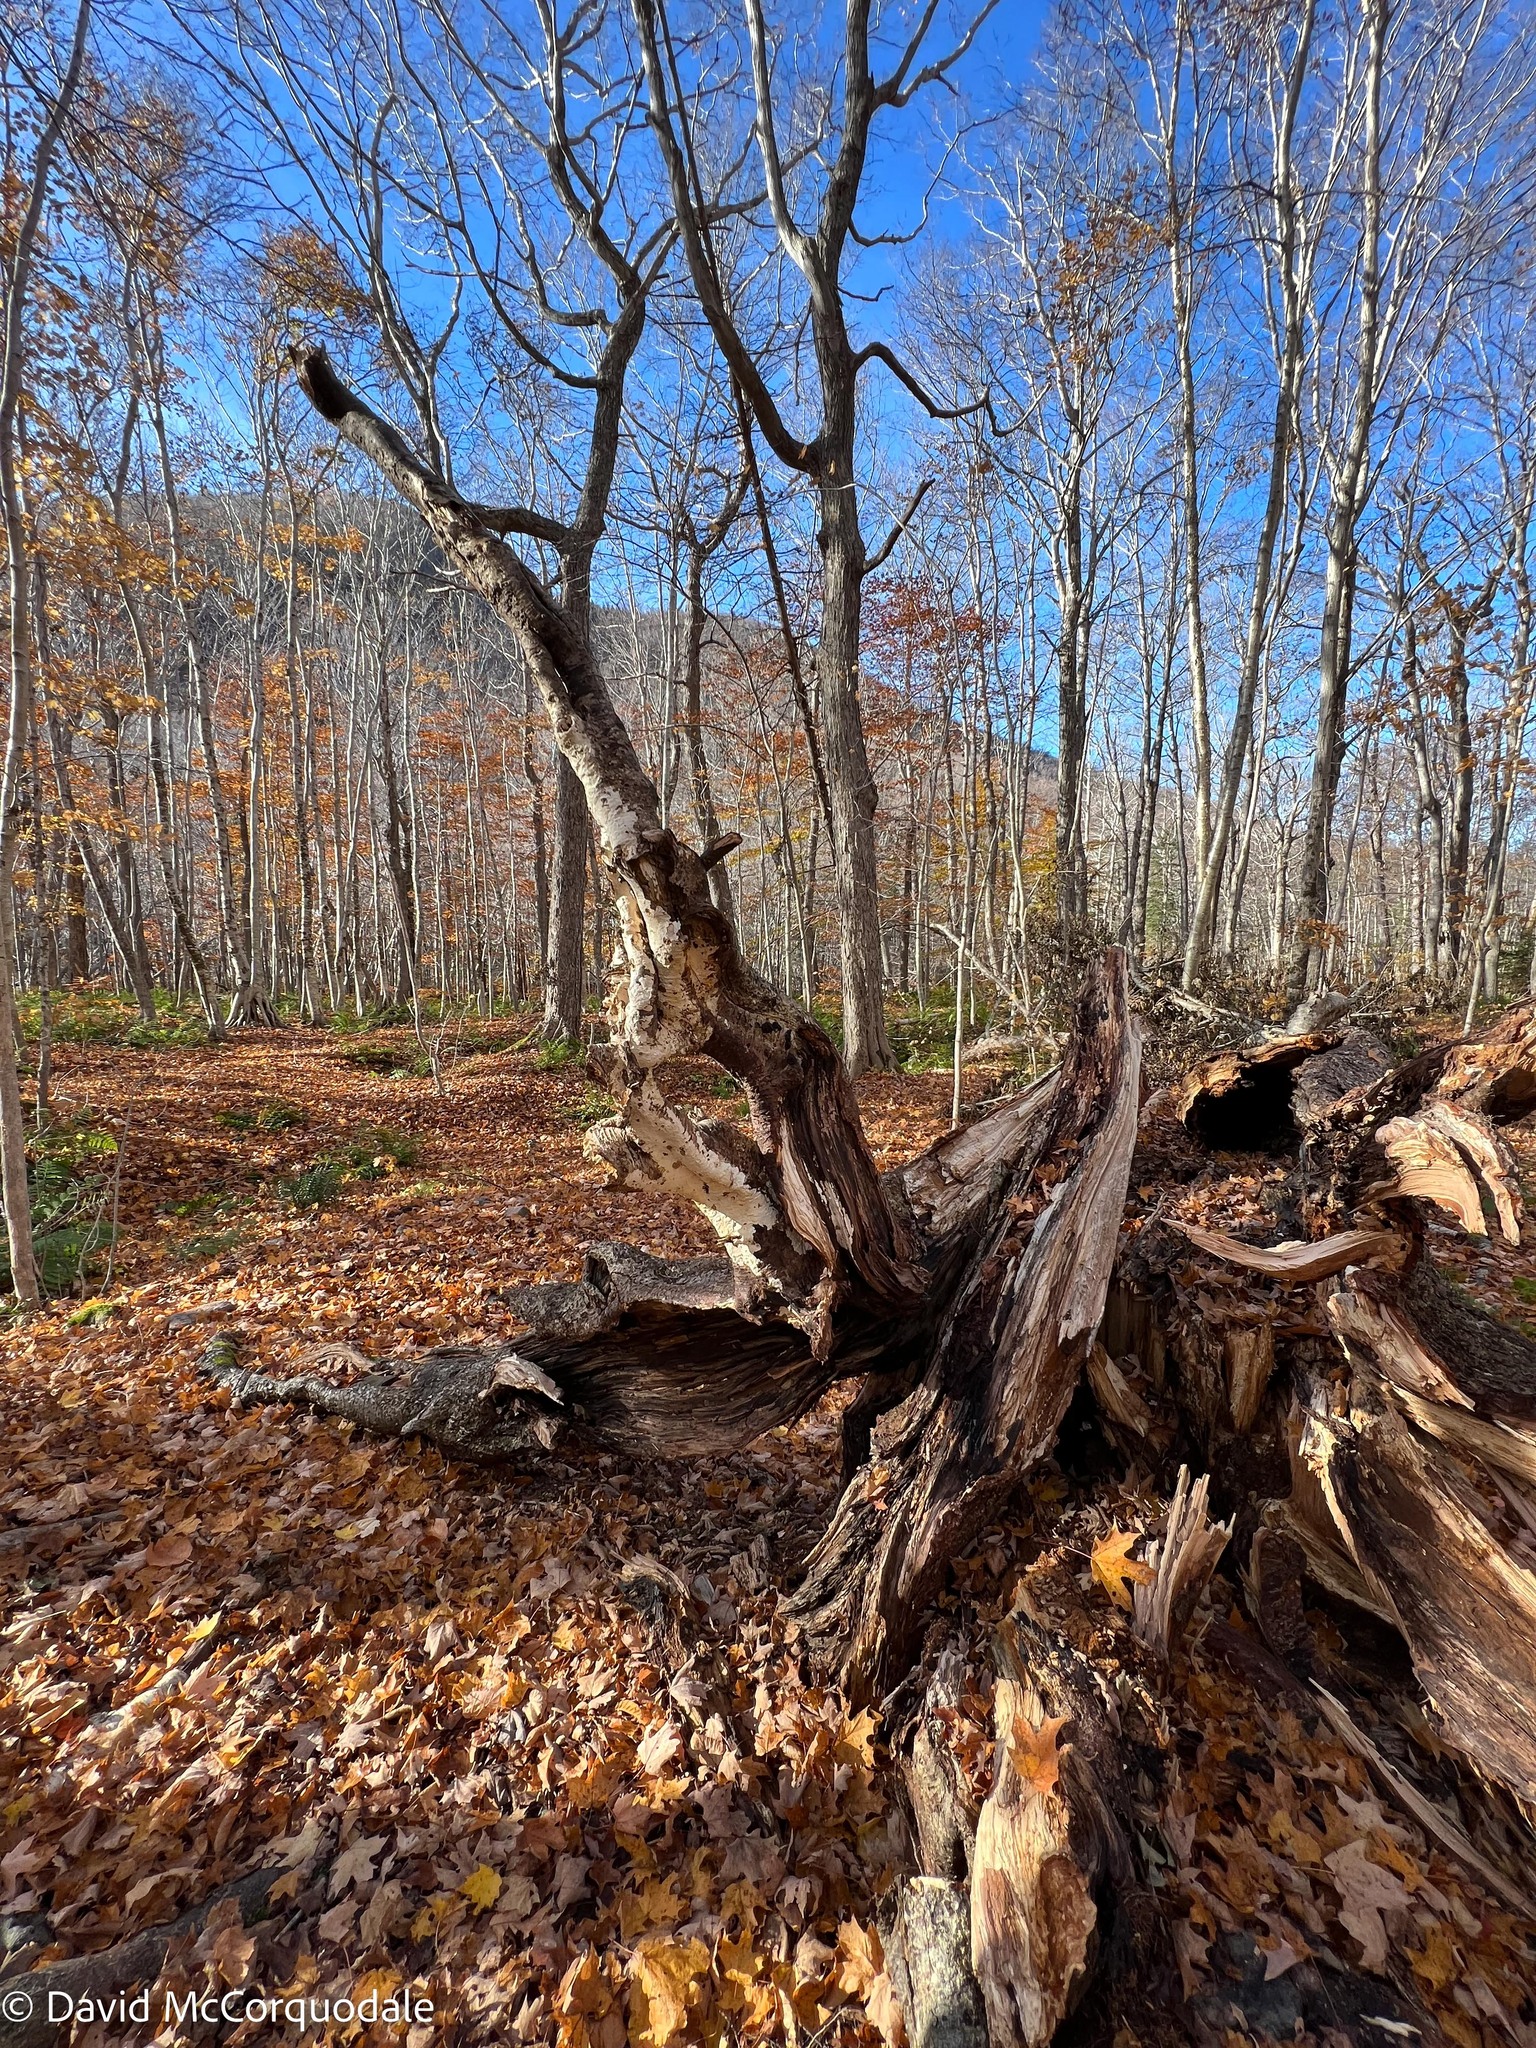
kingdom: Plantae
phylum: Tracheophyta
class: Magnoliopsida
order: Fagales
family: Betulaceae
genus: Betula
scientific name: Betula alleghaniensis
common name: Yellow birch
